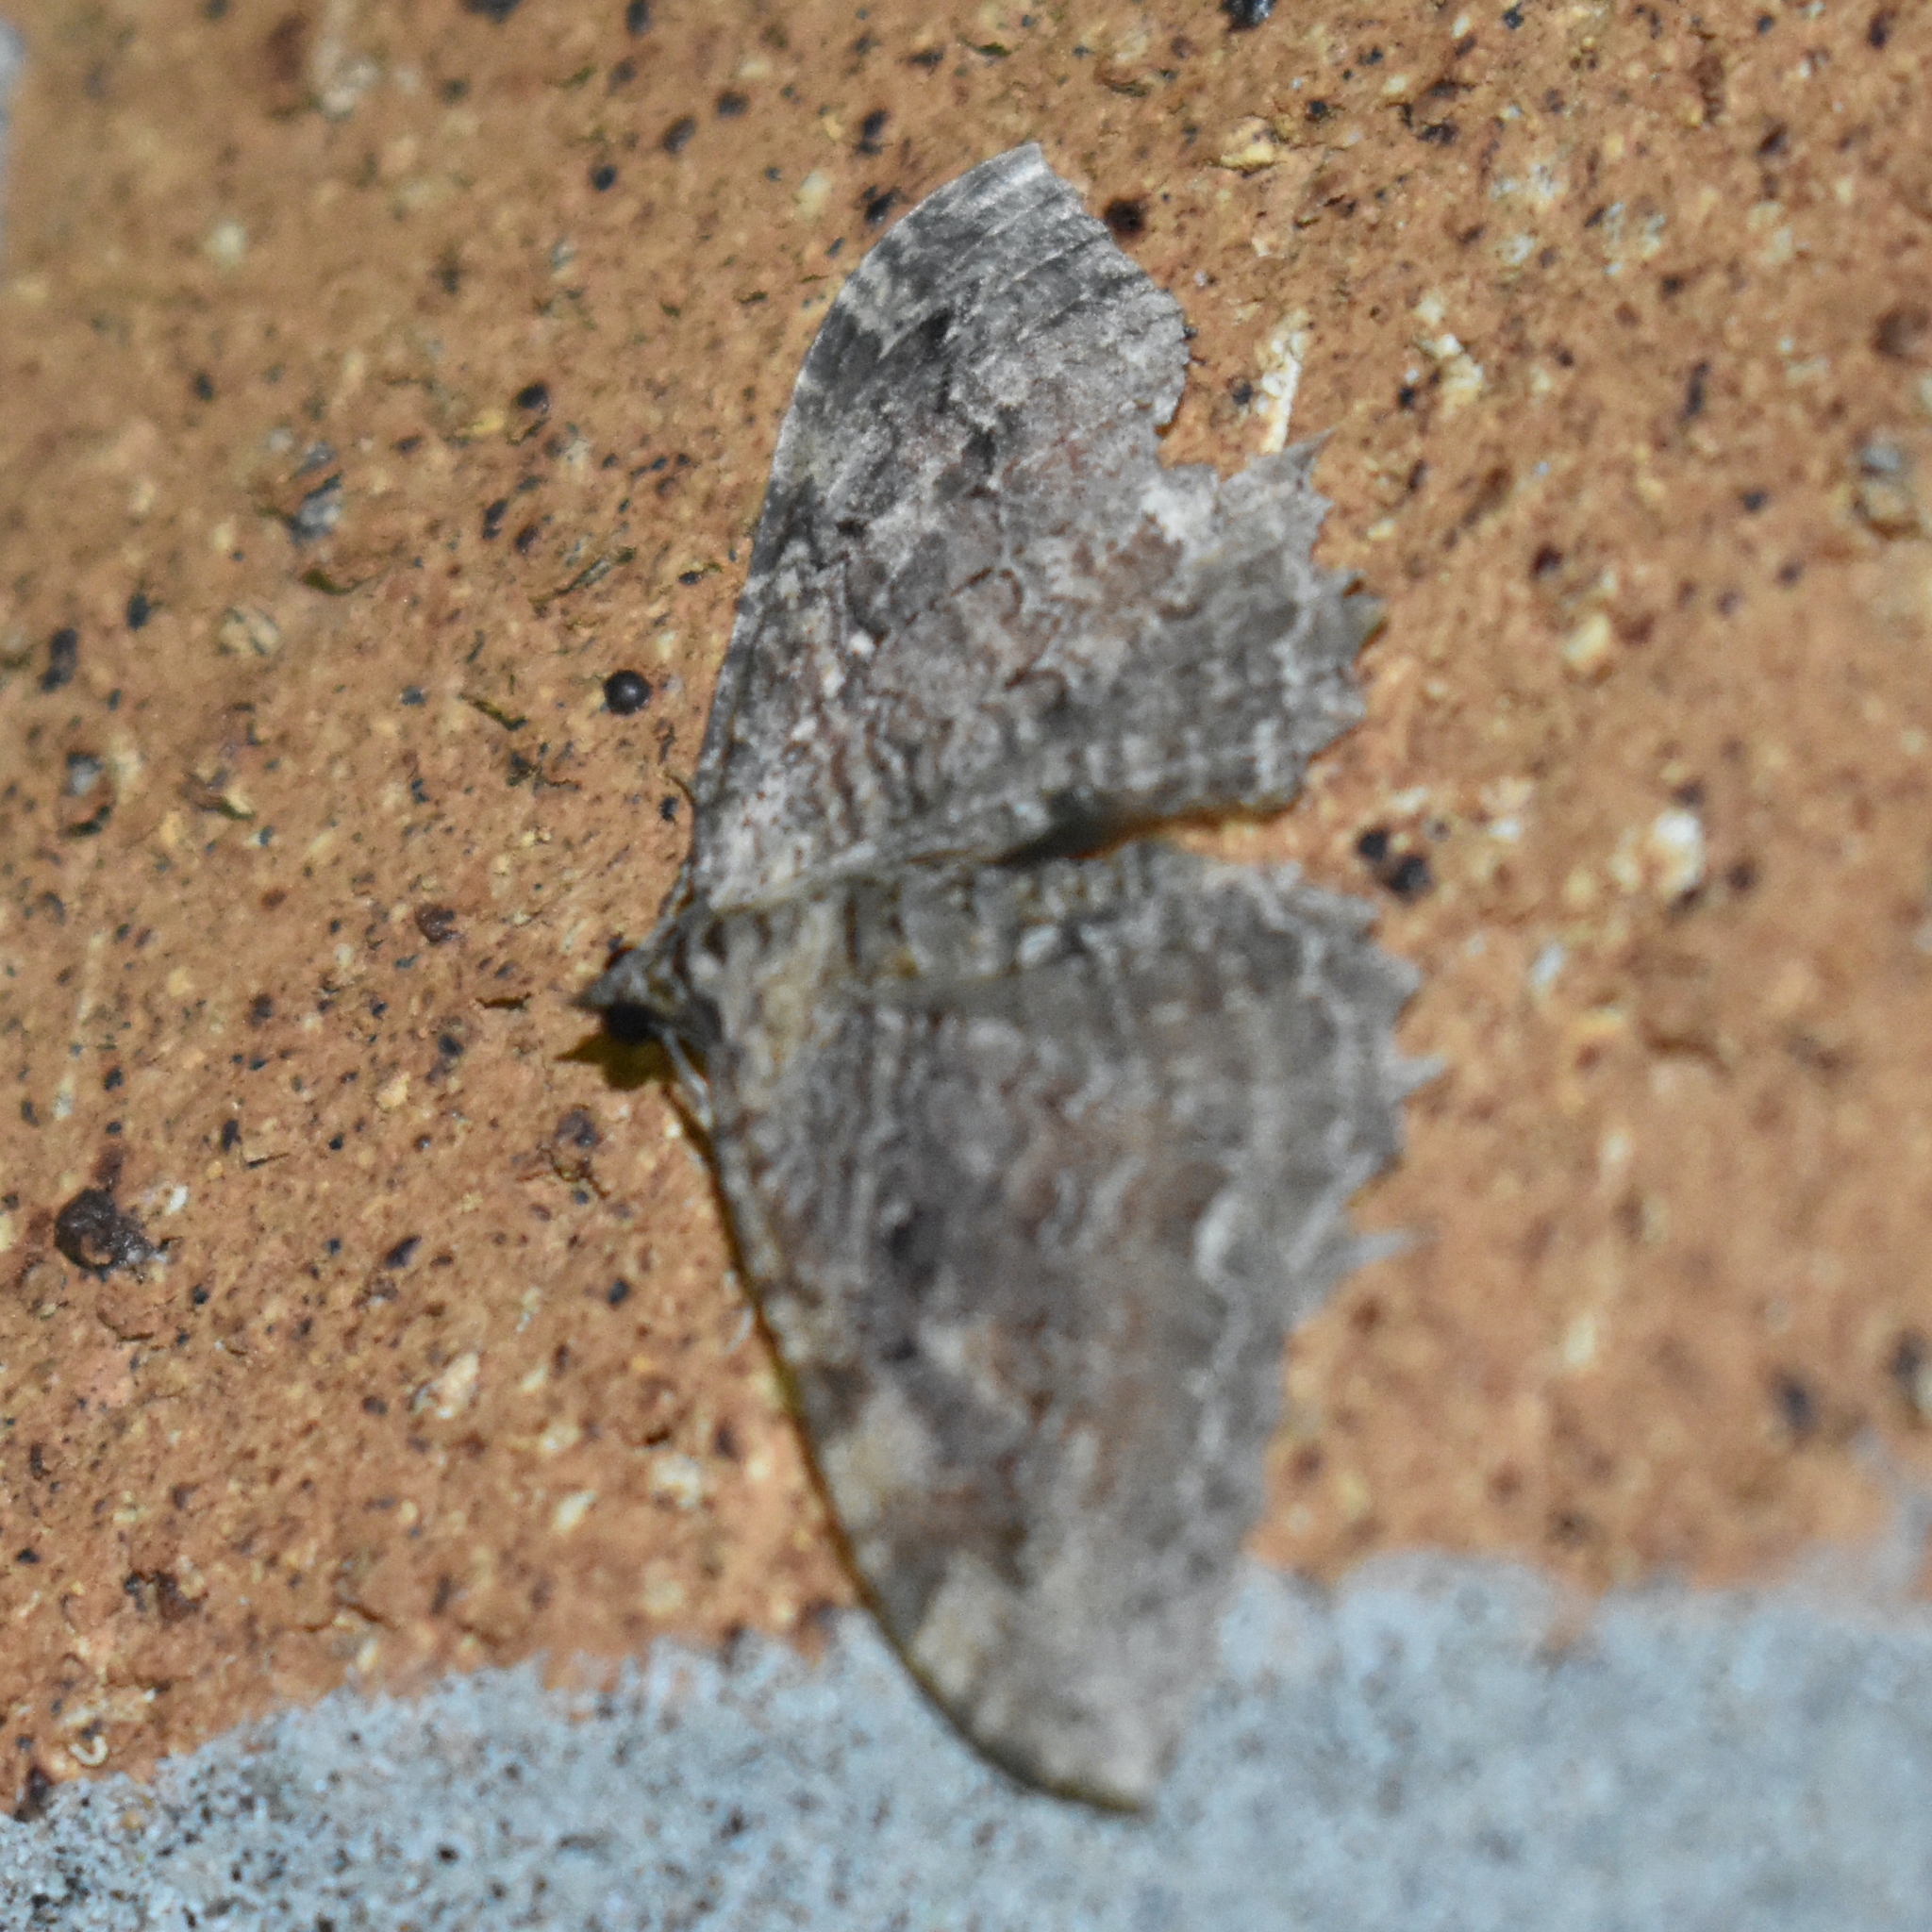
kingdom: Animalia
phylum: Arthropoda
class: Insecta
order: Lepidoptera
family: Geometridae
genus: Rheumaptera
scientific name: Rheumaptera
